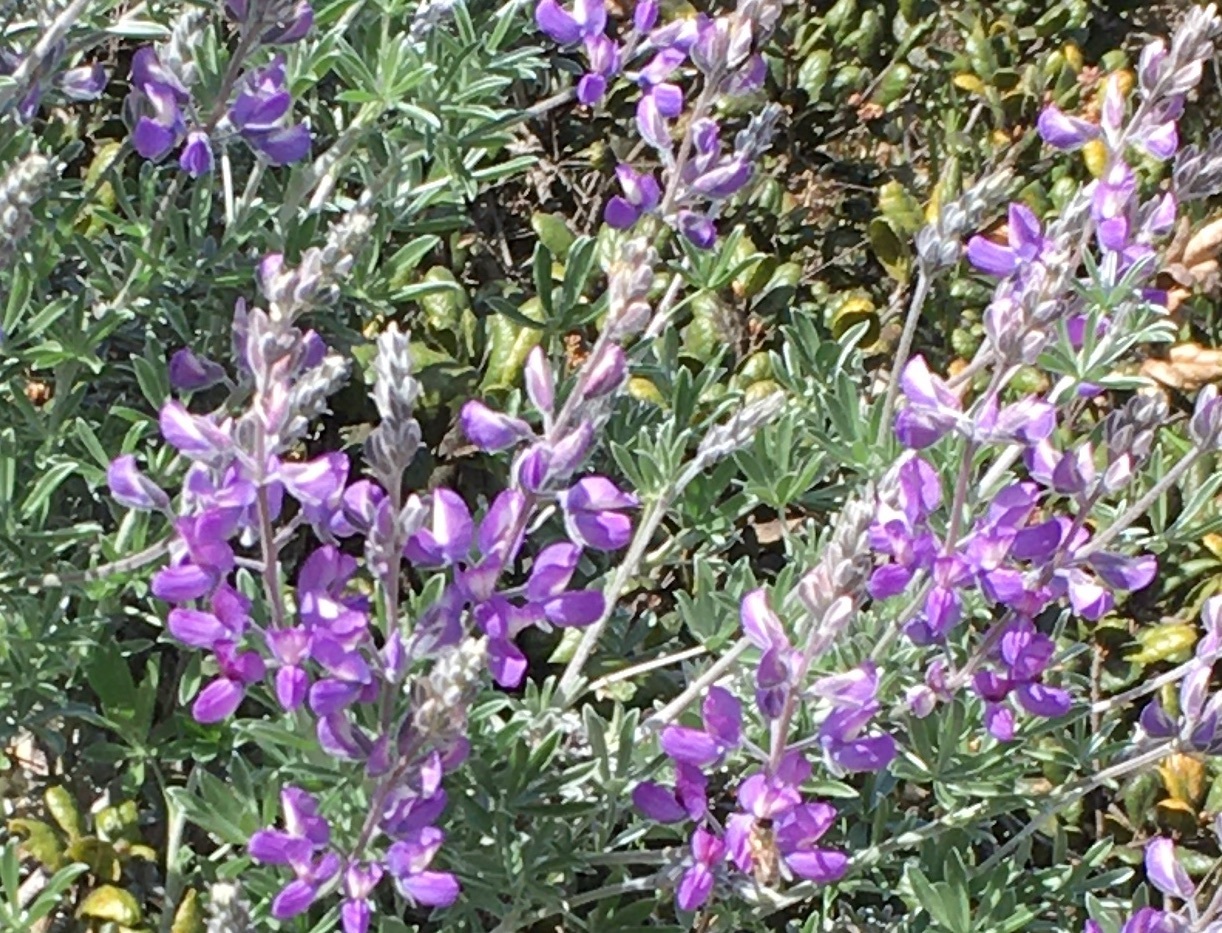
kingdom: Plantae
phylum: Tracheophyta
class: Magnoliopsida
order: Fabales
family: Fabaceae
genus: Lupinus
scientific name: Lupinus chamissonis
